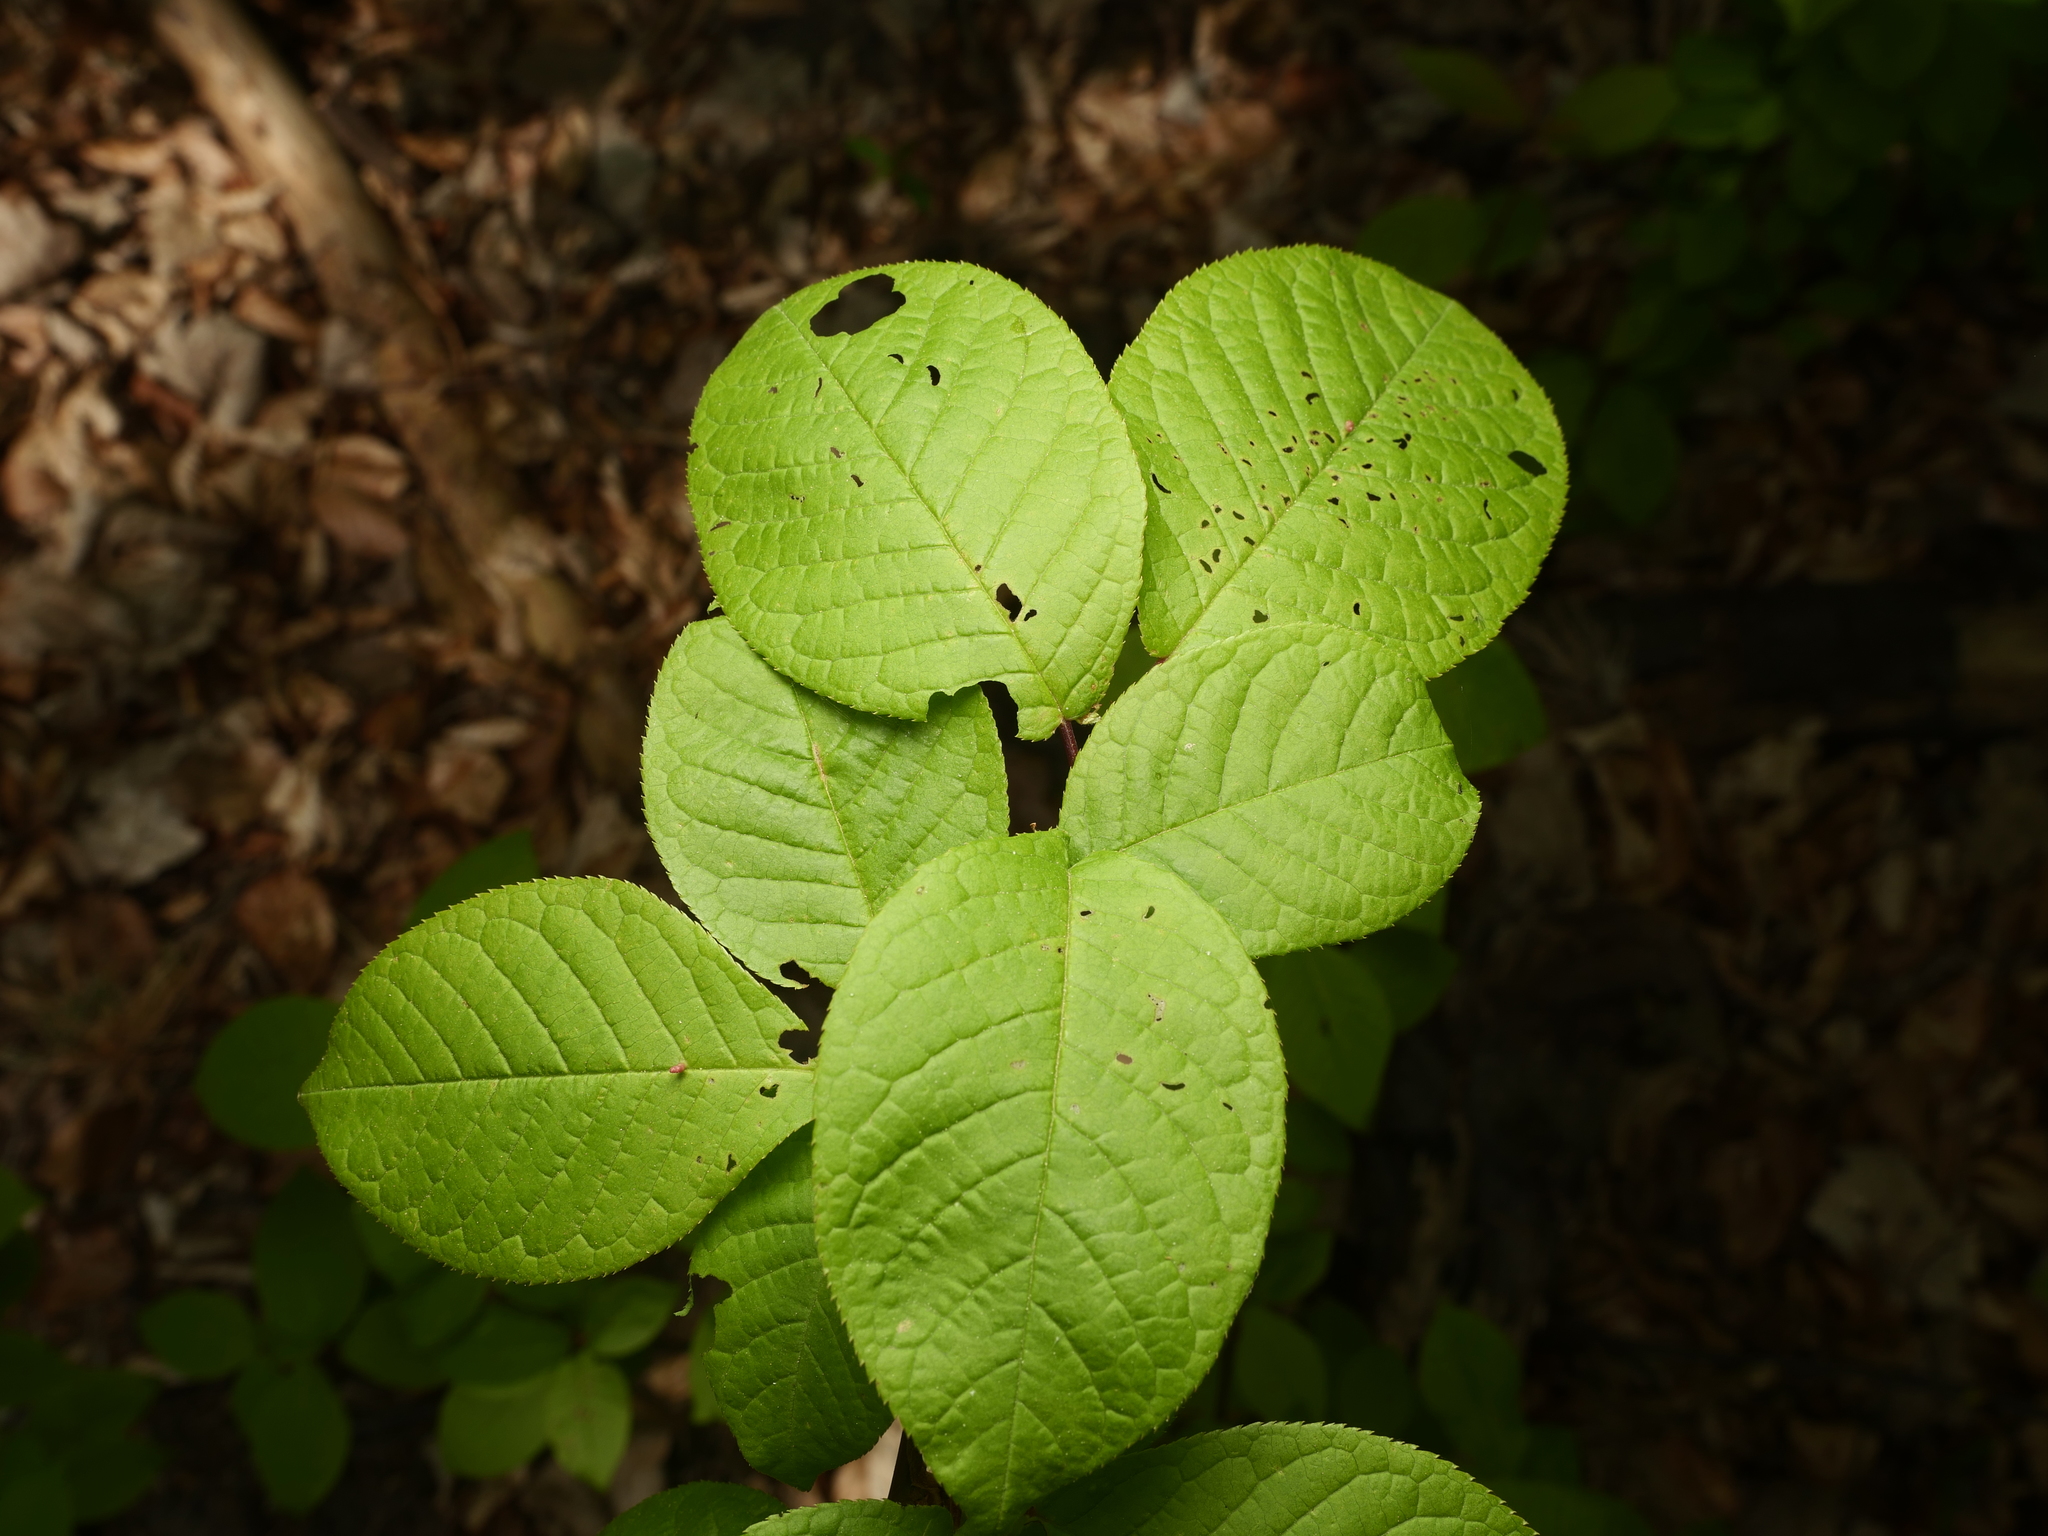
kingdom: Plantae
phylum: Tracheophyta
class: Magnoliopsida
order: Rosales
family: Rosaceae
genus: Prunus
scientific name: Prunus padus
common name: Bird cherry
